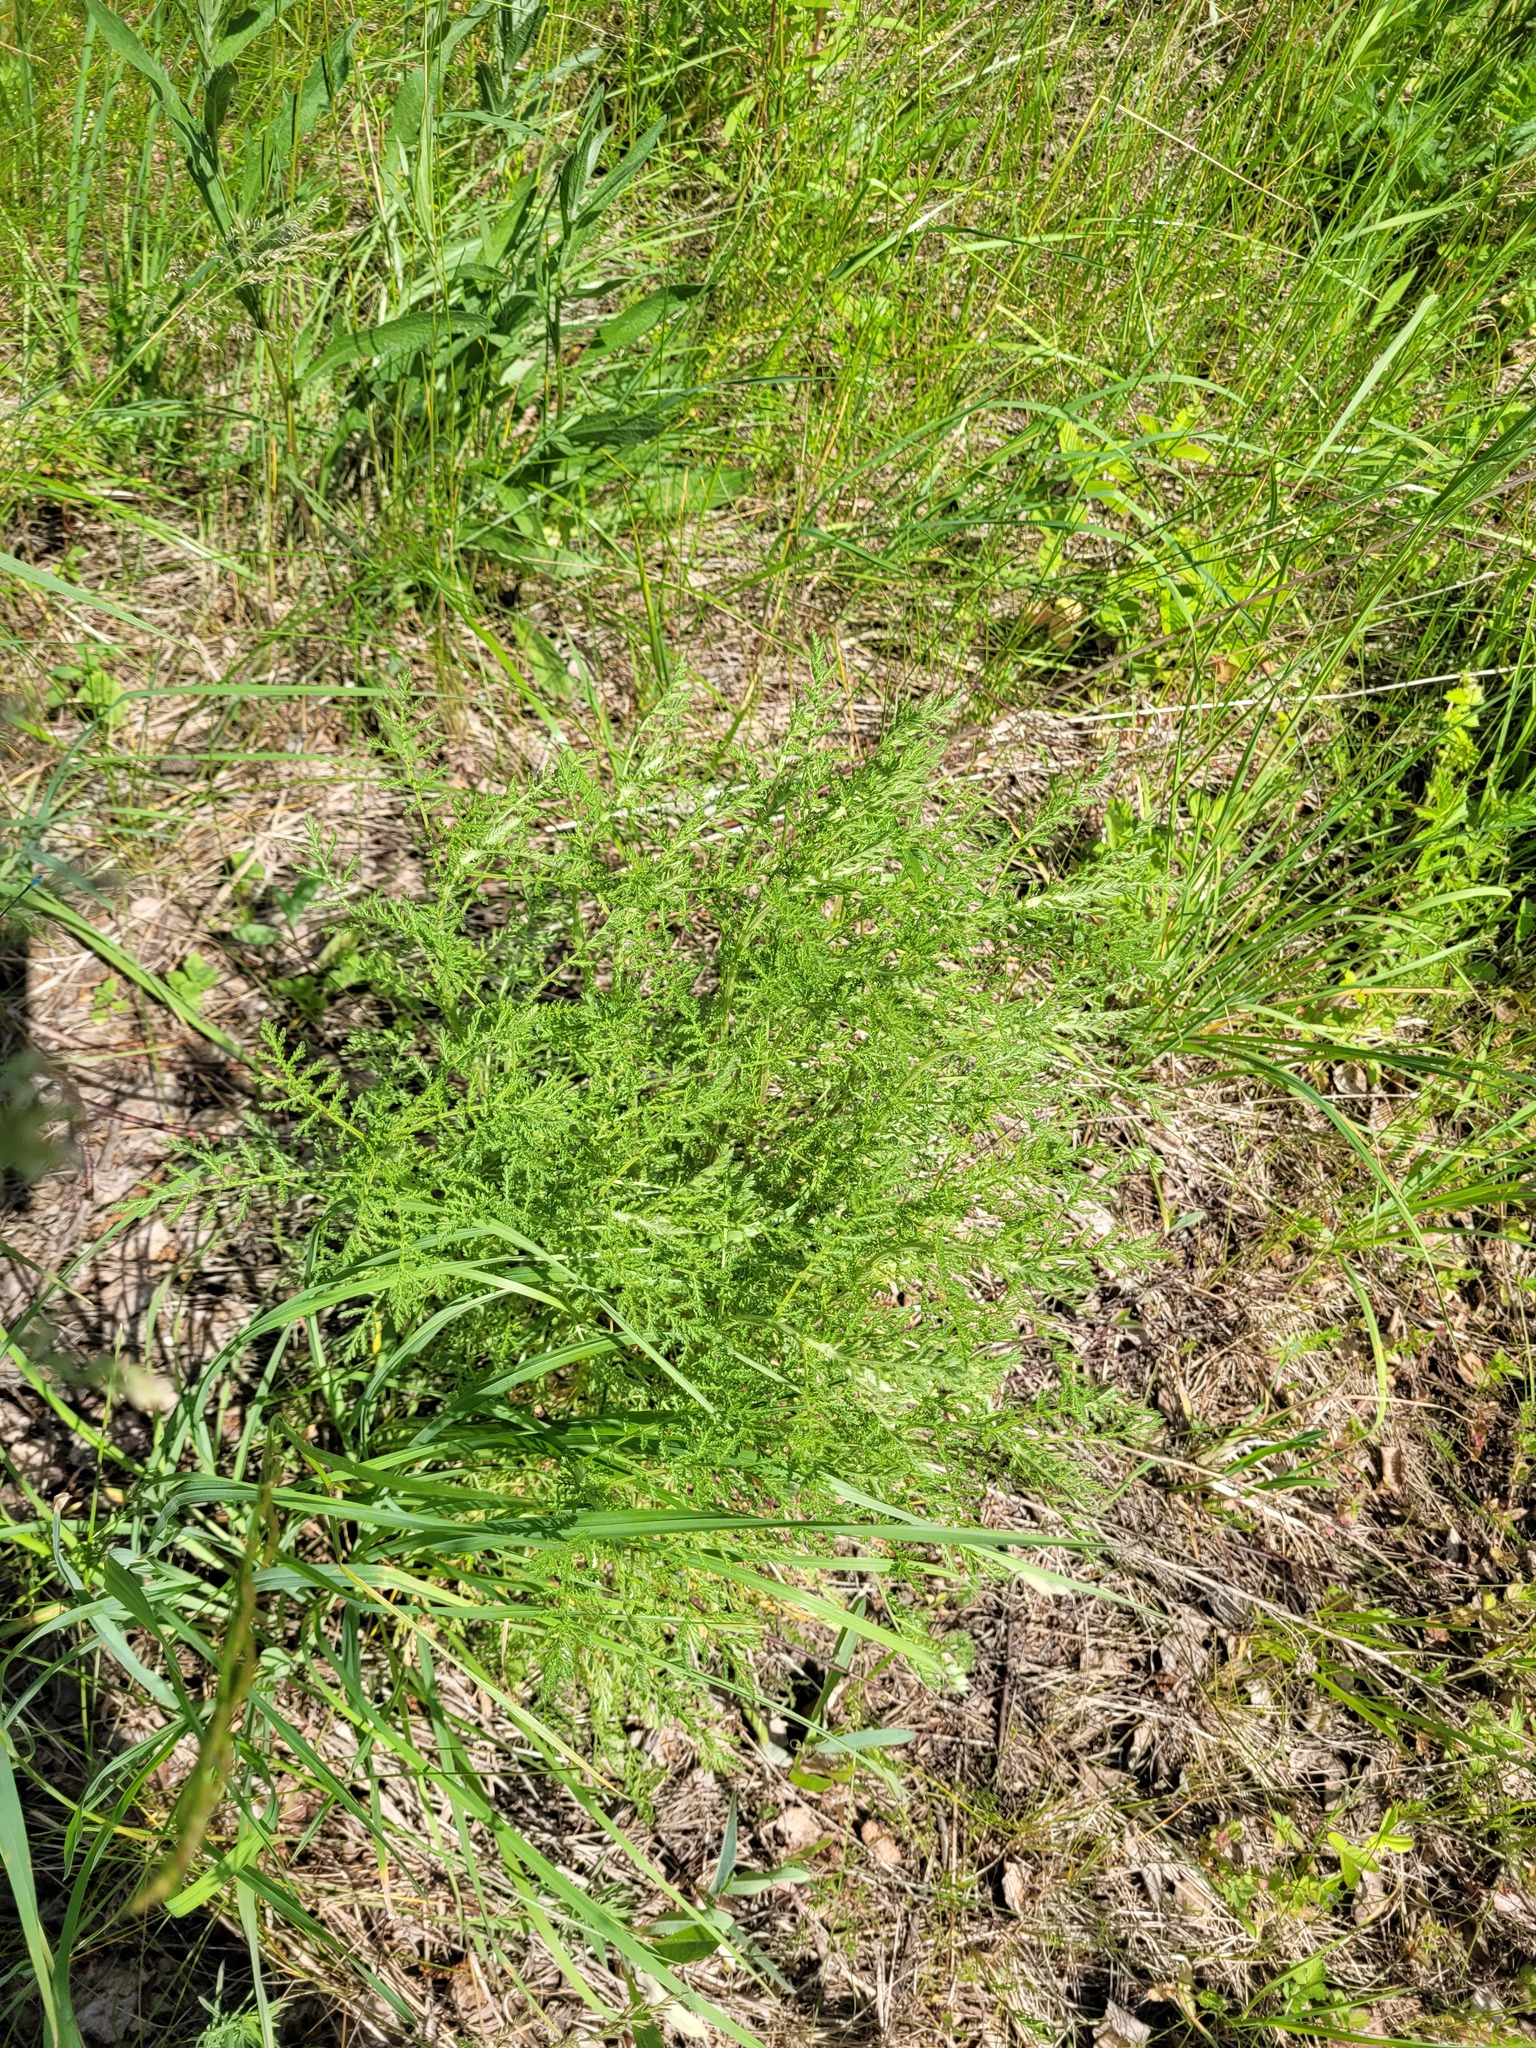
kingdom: Plantae
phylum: Tracheophyta
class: Magnoliopsida
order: Asterales
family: Asteraceae
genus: Achillea
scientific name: Achillea nobilis
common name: Noble yarrow
